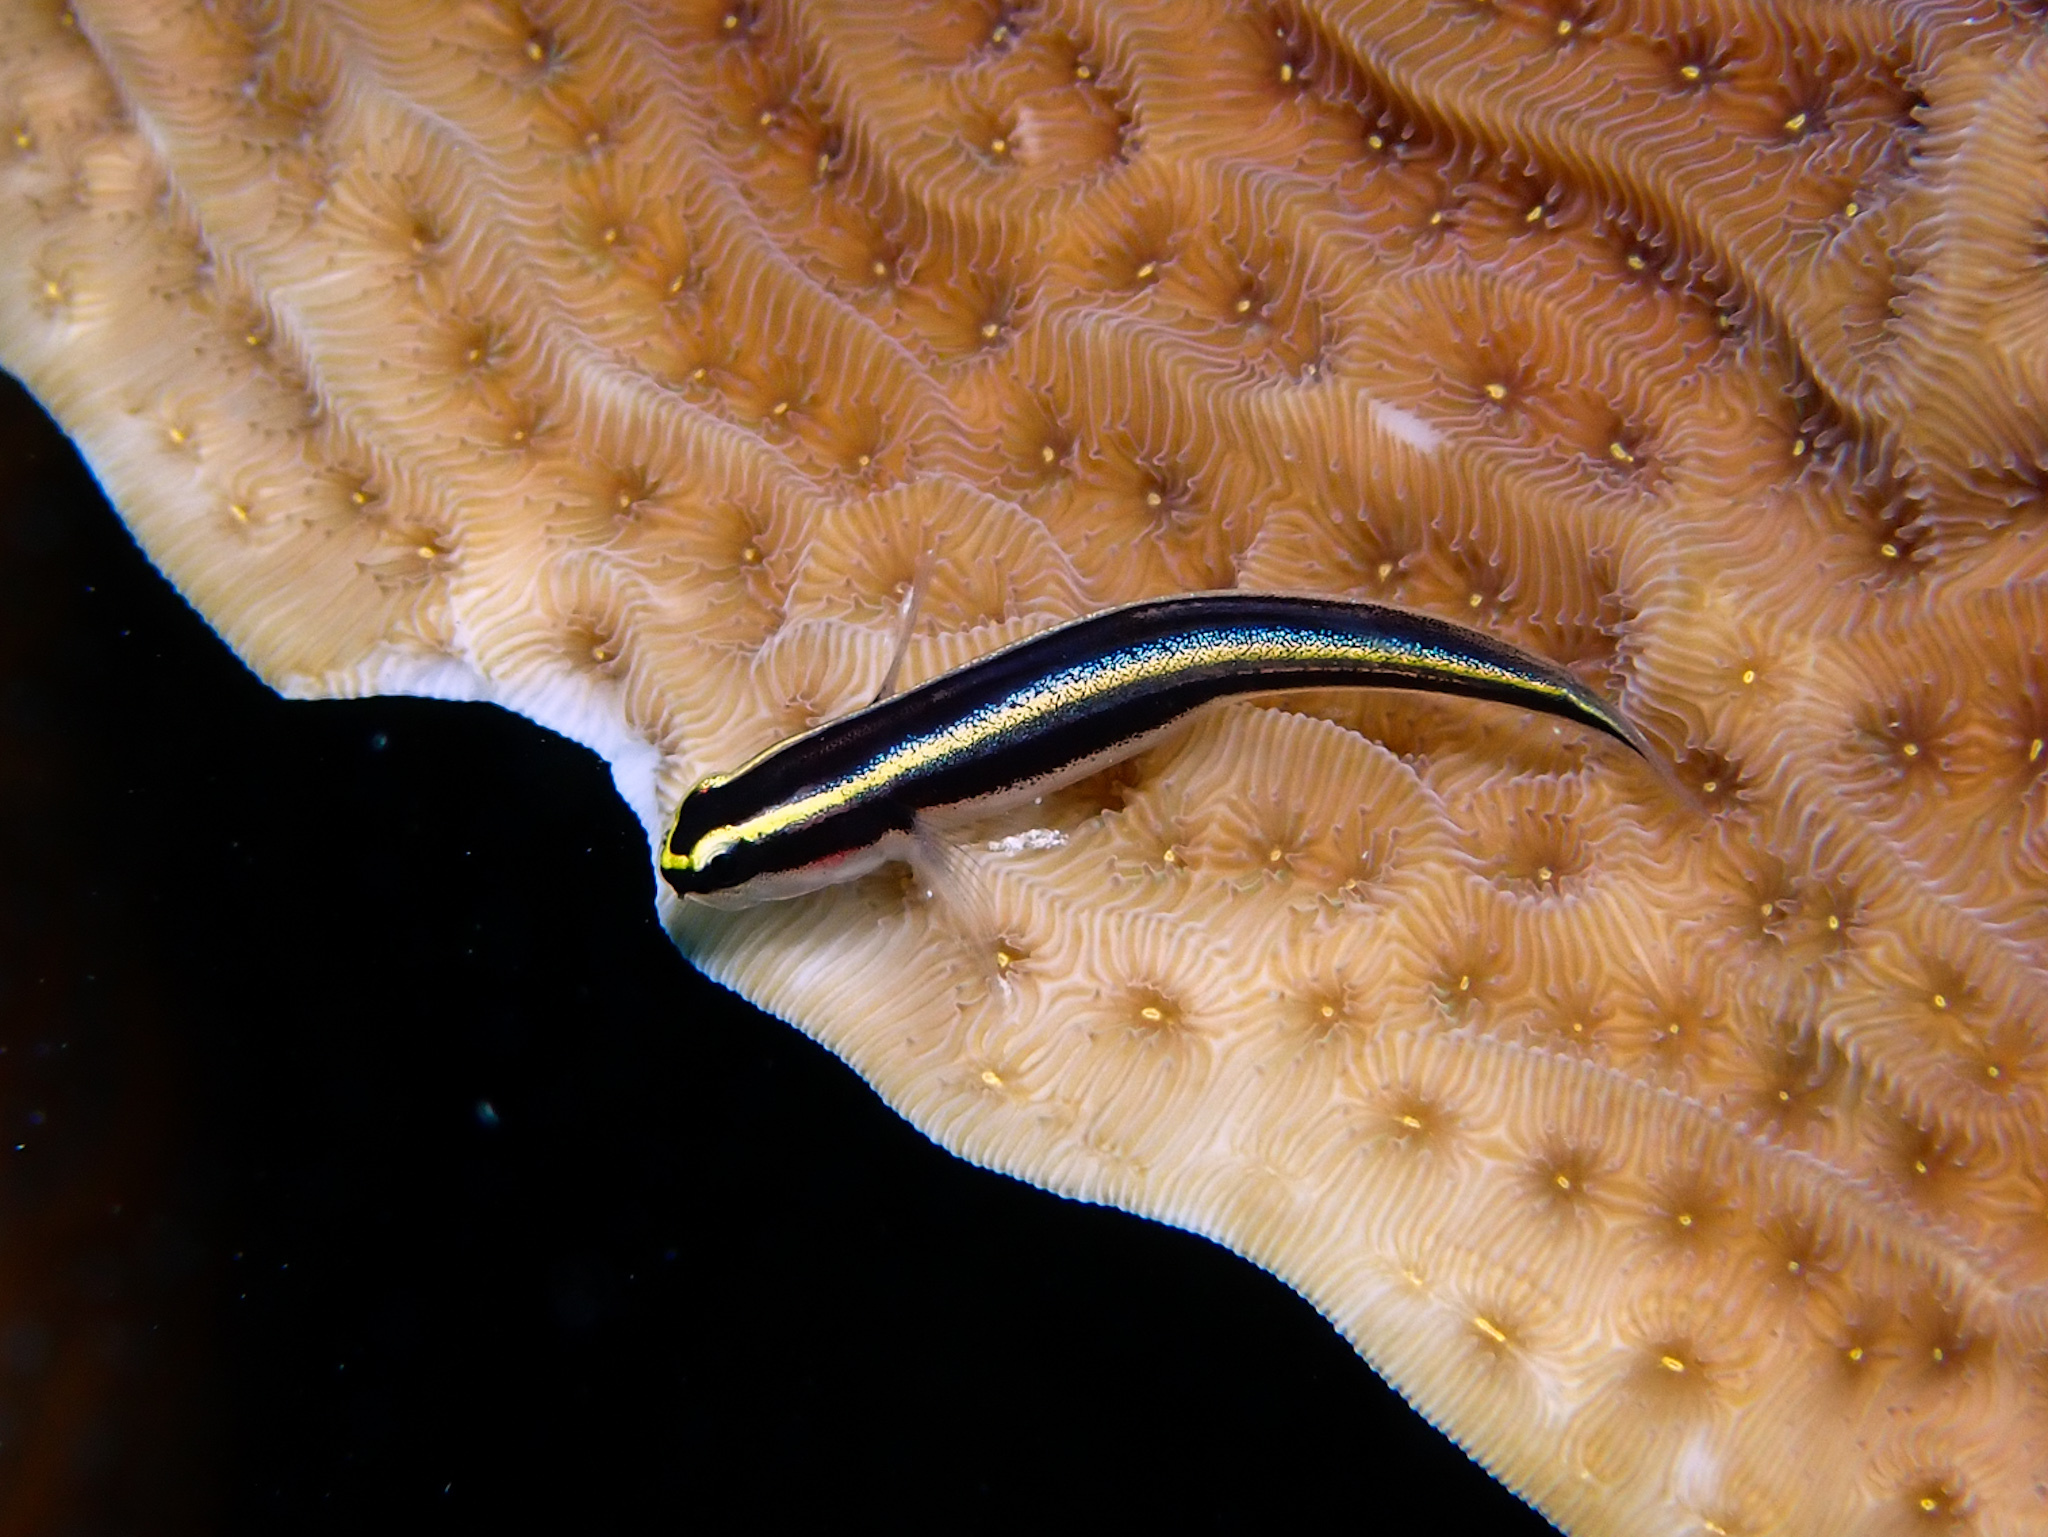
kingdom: Animalia
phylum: Chordata
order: Perciformes
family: Gobiidae
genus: Elacatinus
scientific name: Elacatinus cayman
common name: Cayman cleaner goby
